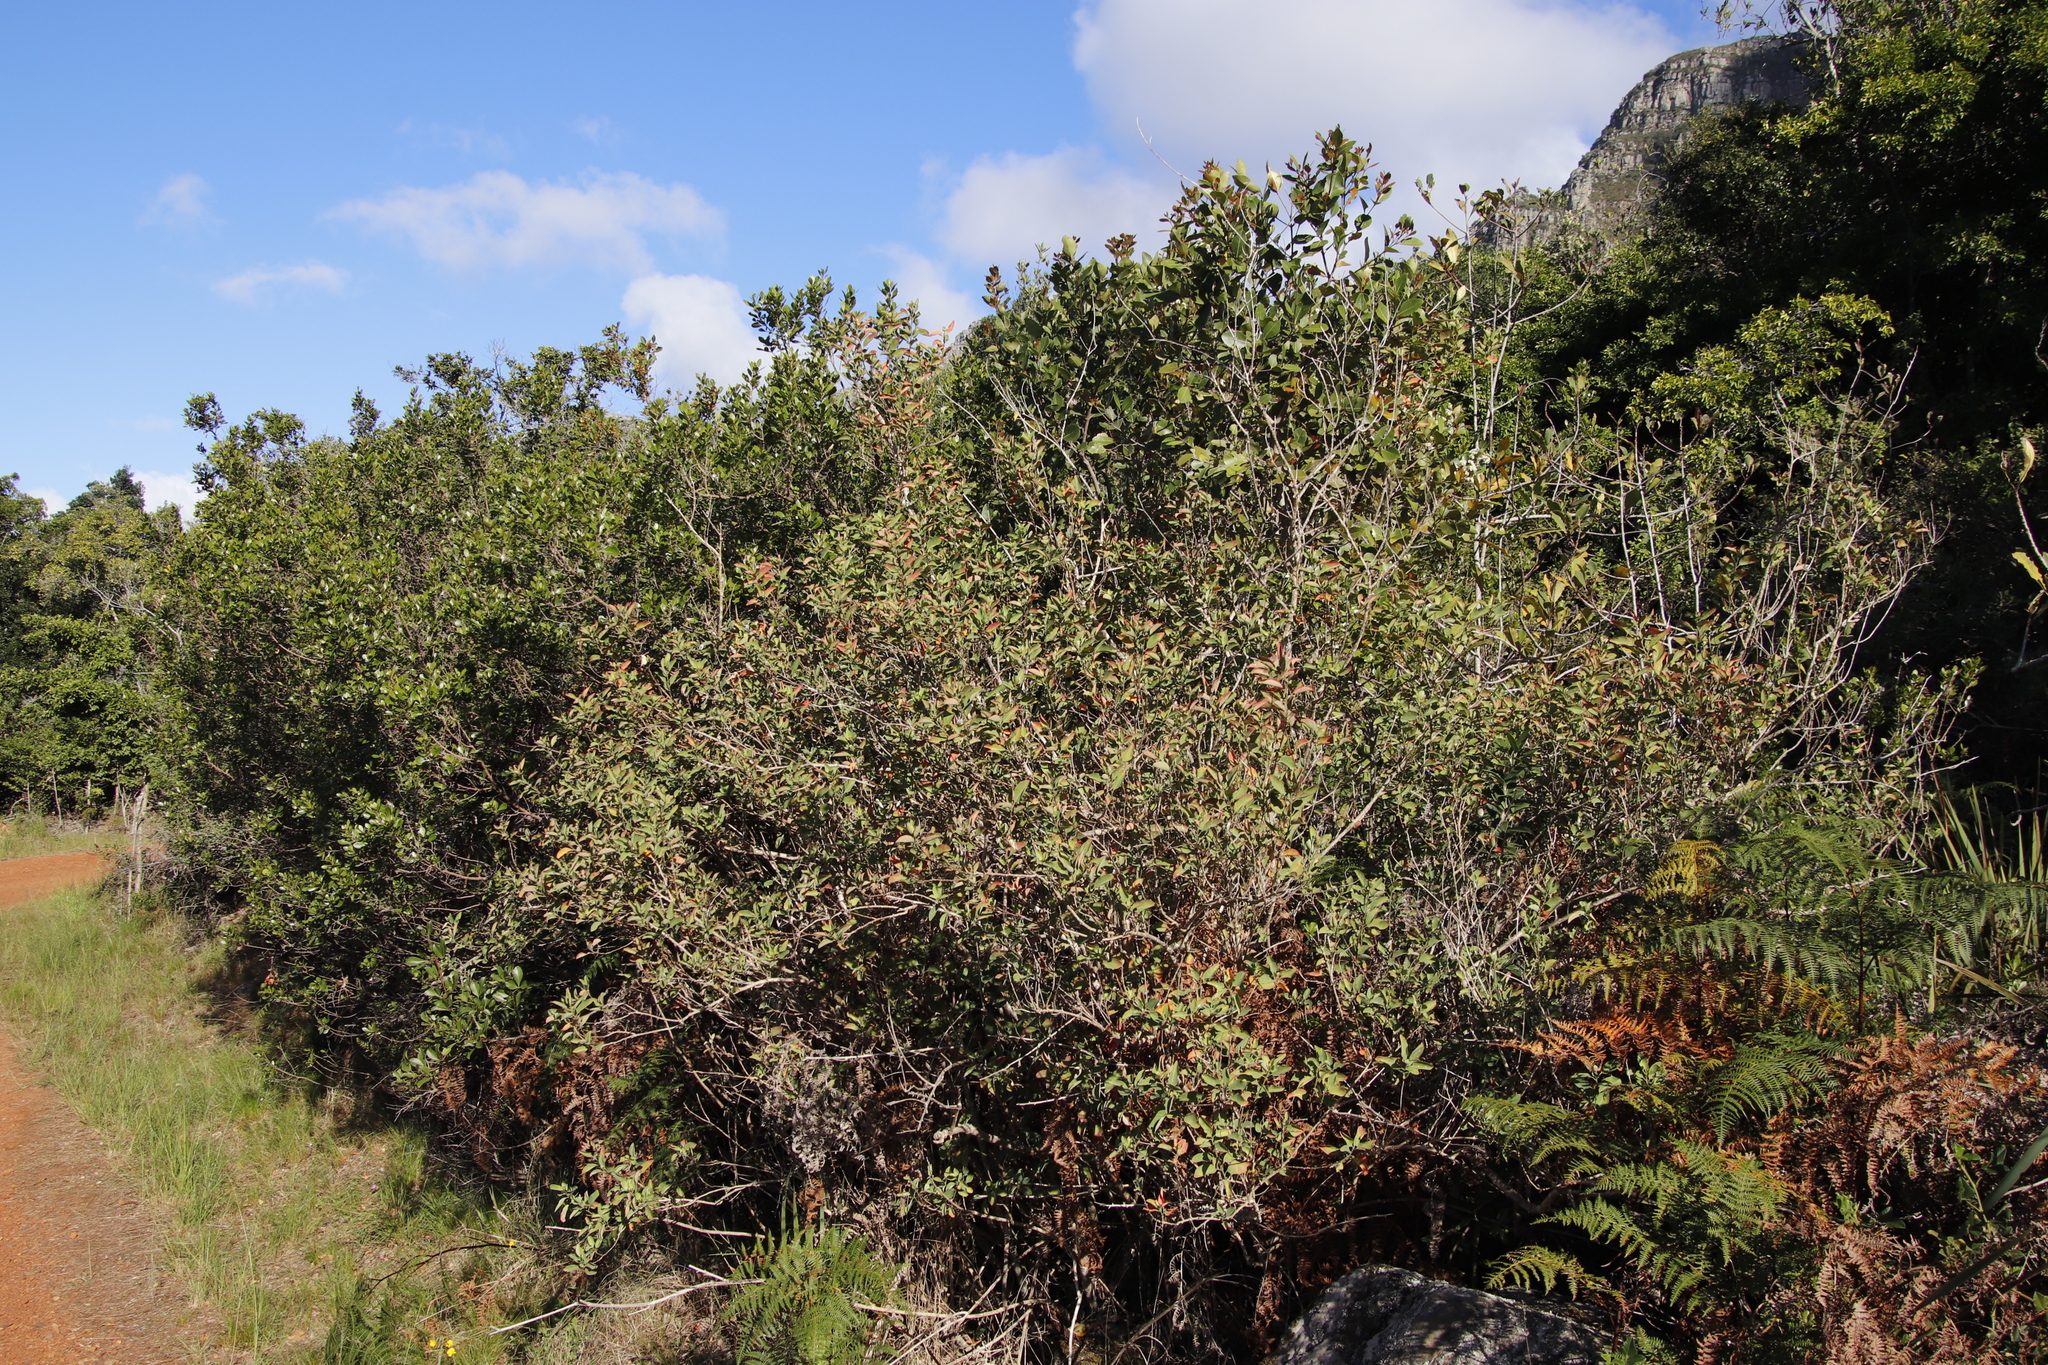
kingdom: Plantae
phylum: Tracheophyta
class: Magnoliopsida
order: Malpighiales
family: Peraceae
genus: Clutia
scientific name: Clutia pulchella
